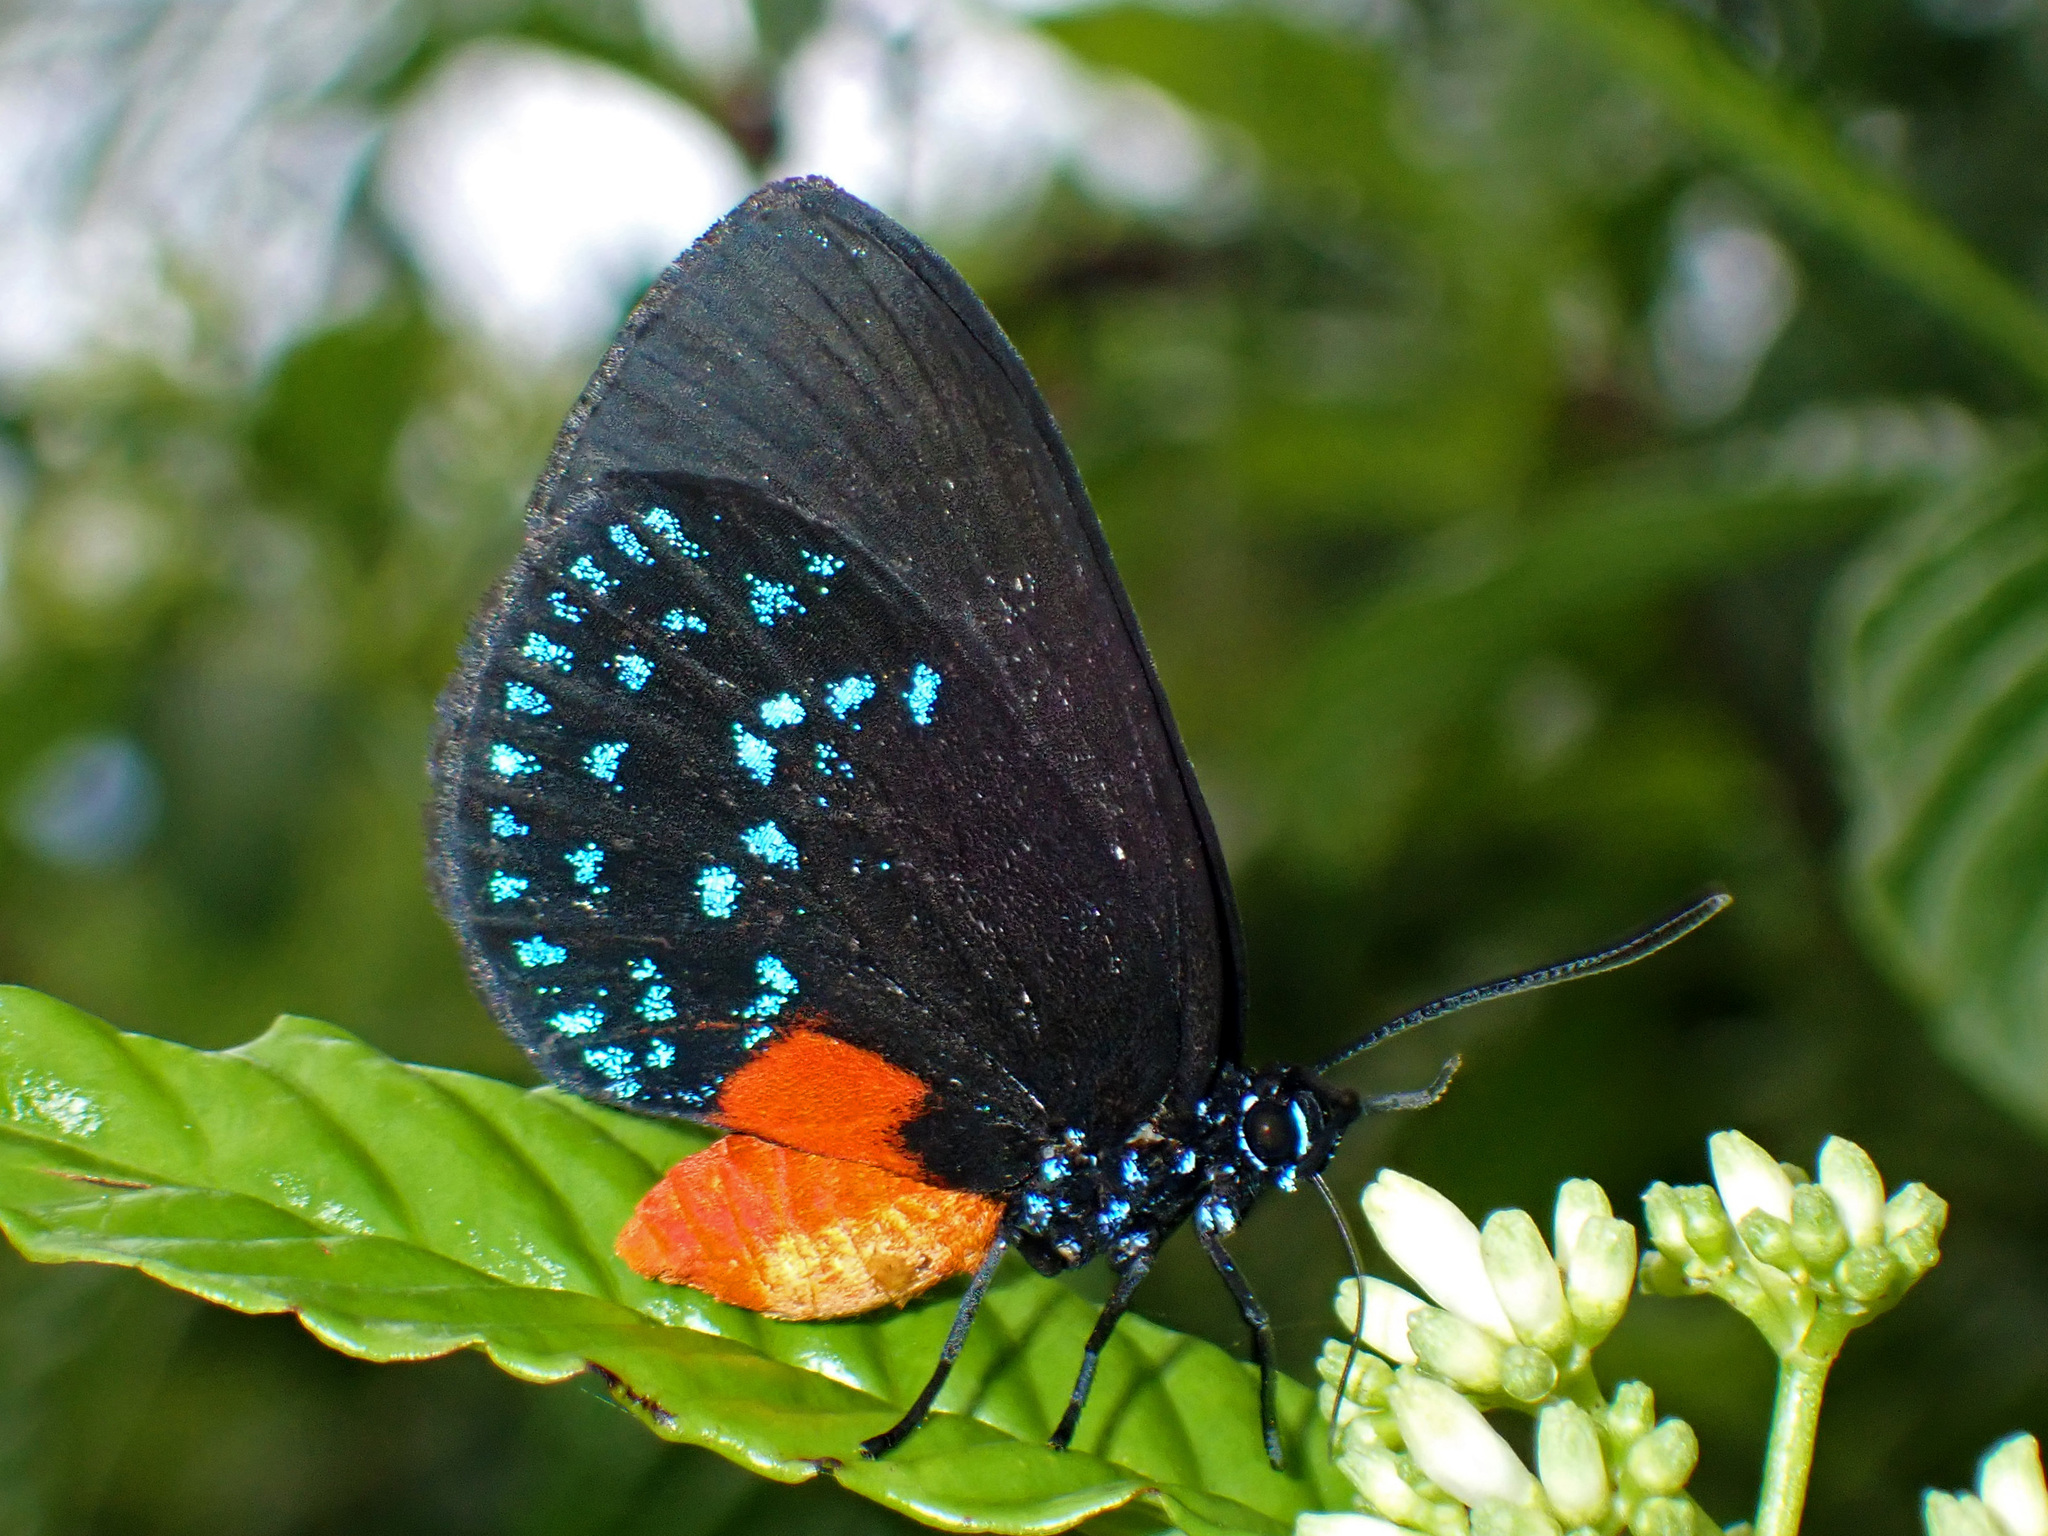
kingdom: Animalia
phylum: Arthropoda
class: Insecta
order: Lepidoptera
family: Lycaenidae
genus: Eumaeus
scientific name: Eumaeus atala
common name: Atala
